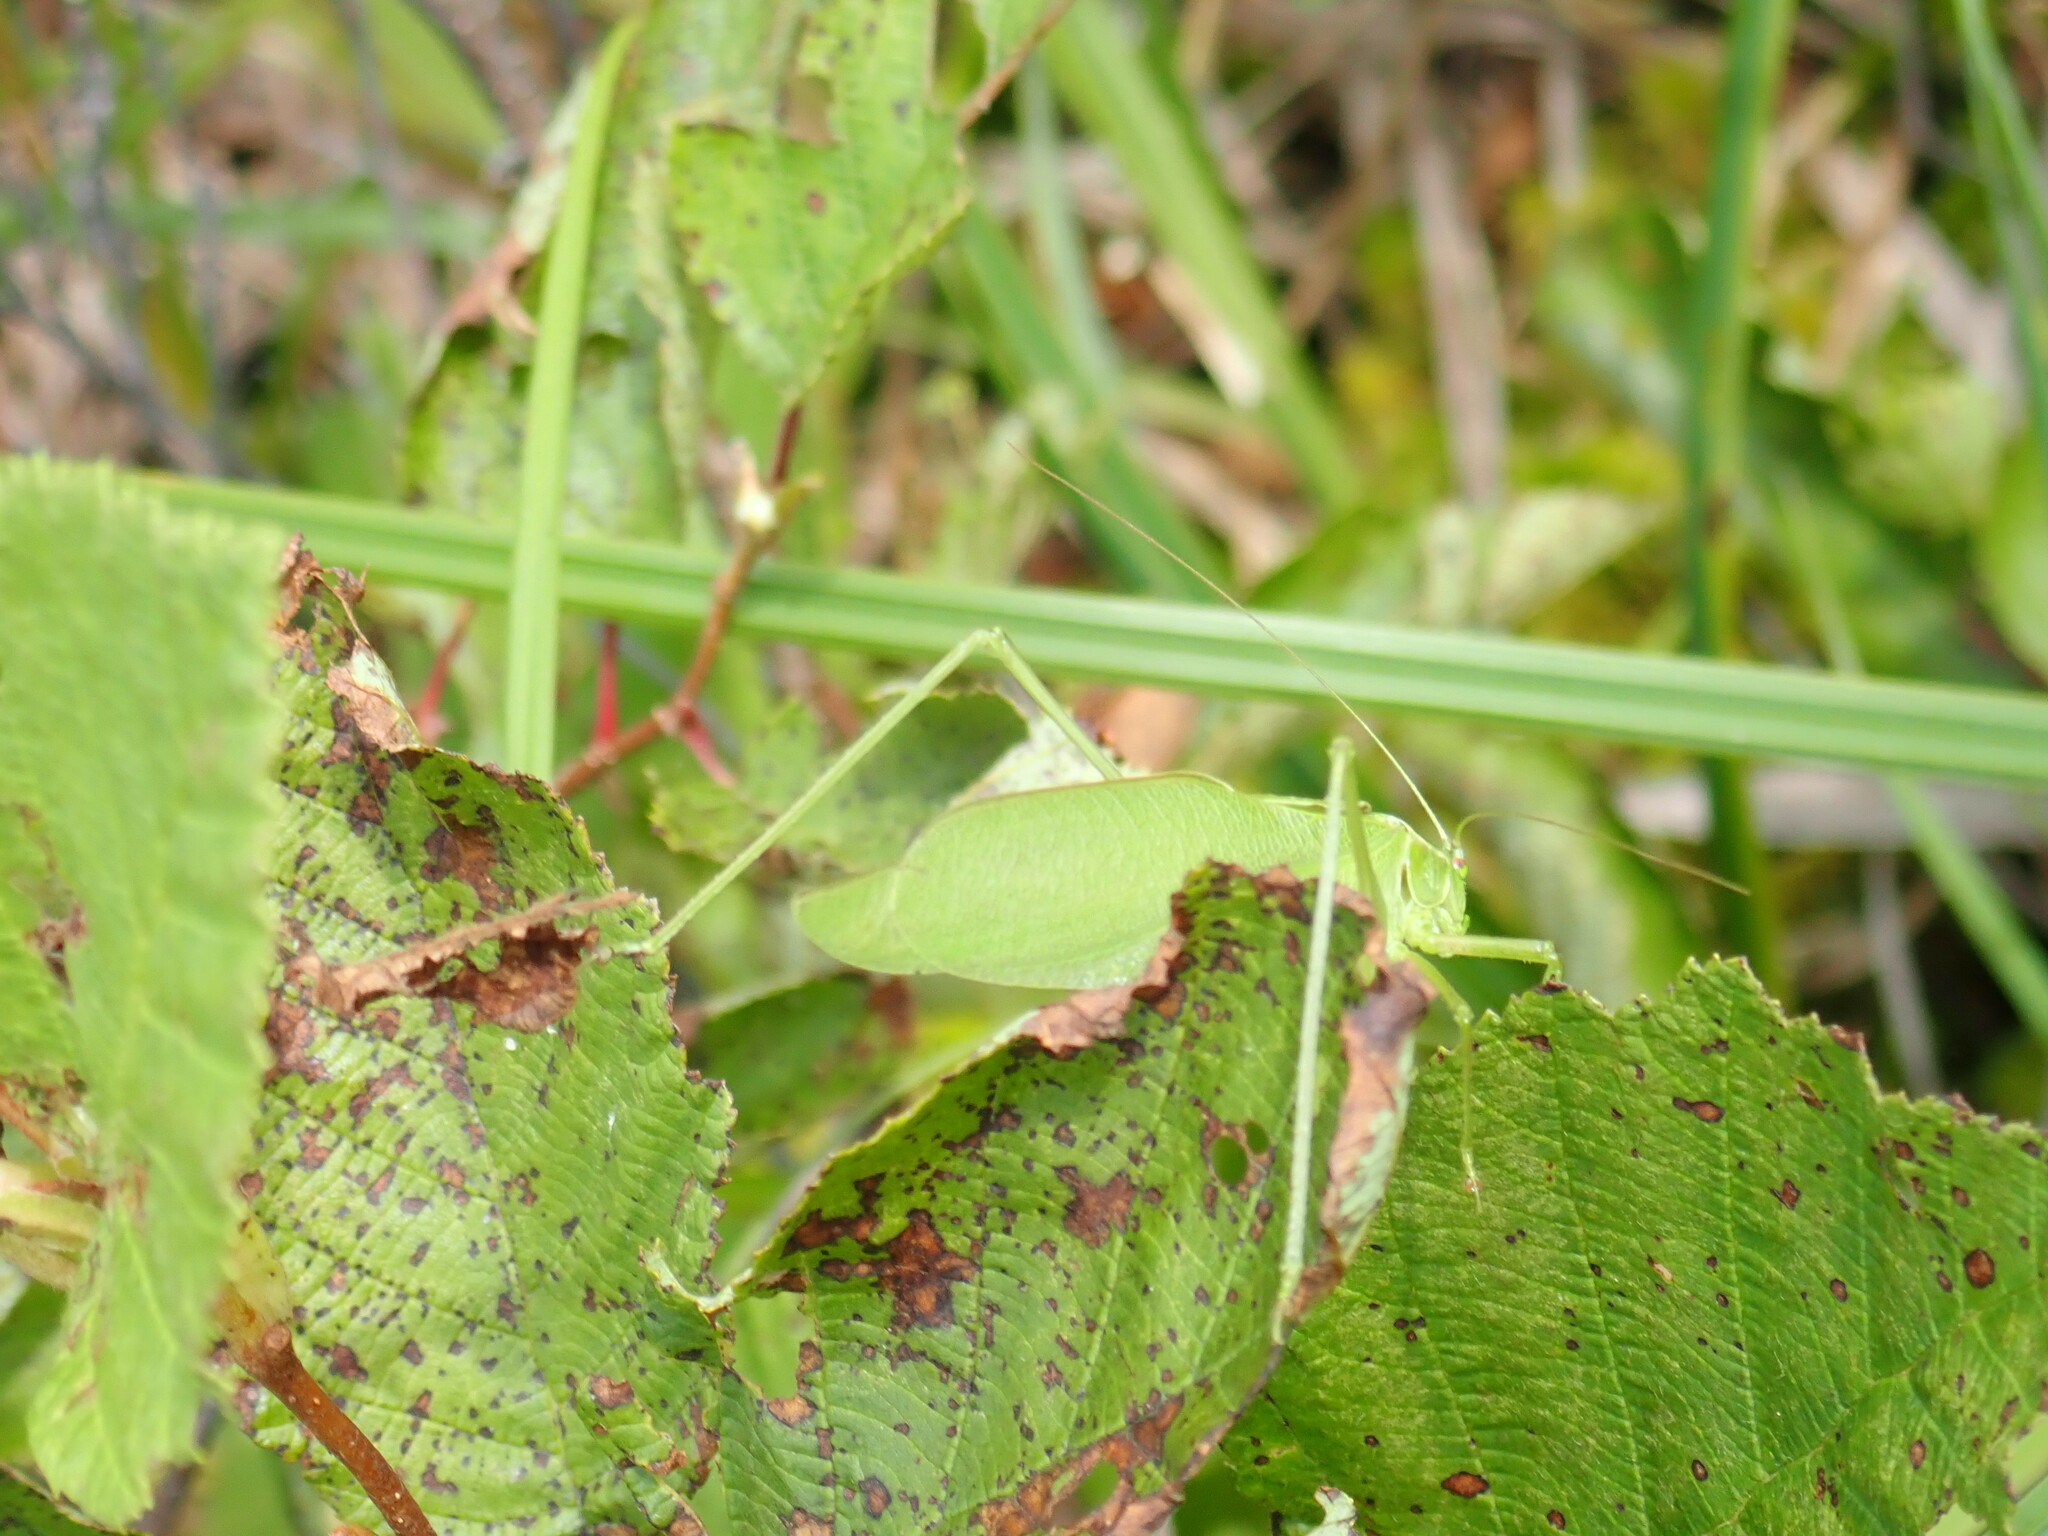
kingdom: Animalia
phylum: Arthropoda
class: Insecta
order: Orthoptera
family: Tettigoniidae
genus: Scudderia
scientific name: Scudderia pistillata
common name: Broad-winged bush-katydid
